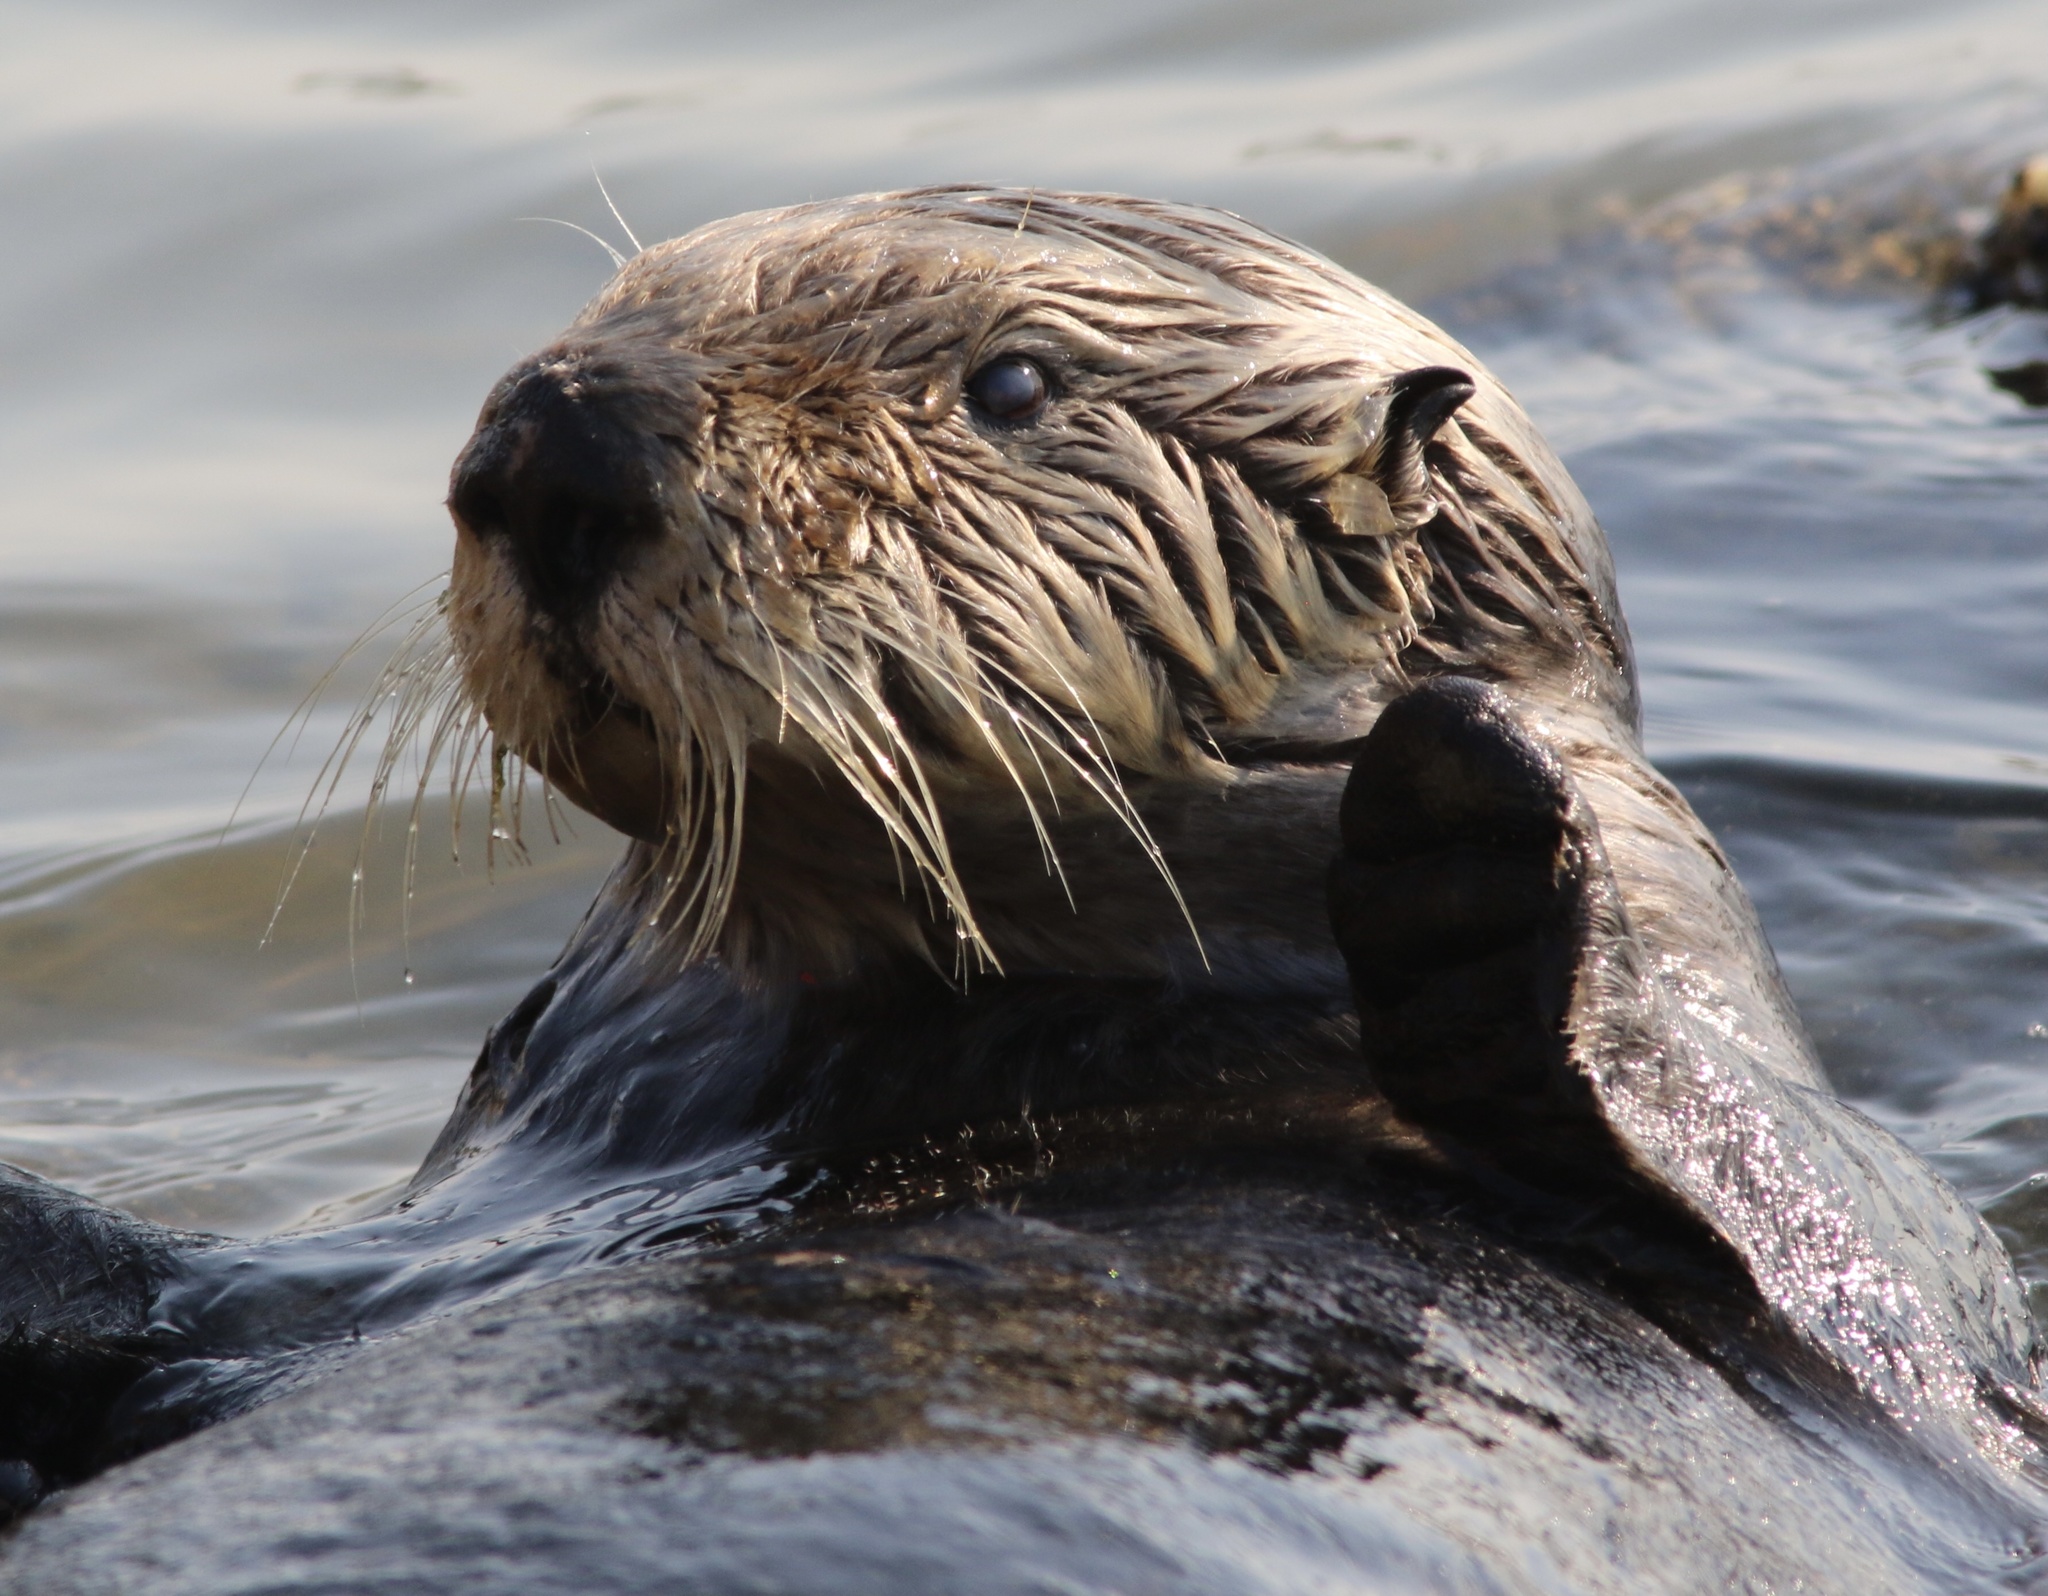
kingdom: Animalia
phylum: Chordata
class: Mammalia
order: Carnivora
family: Mustelidae
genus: Enhydra
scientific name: Enhydra lutris
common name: Sea otter
